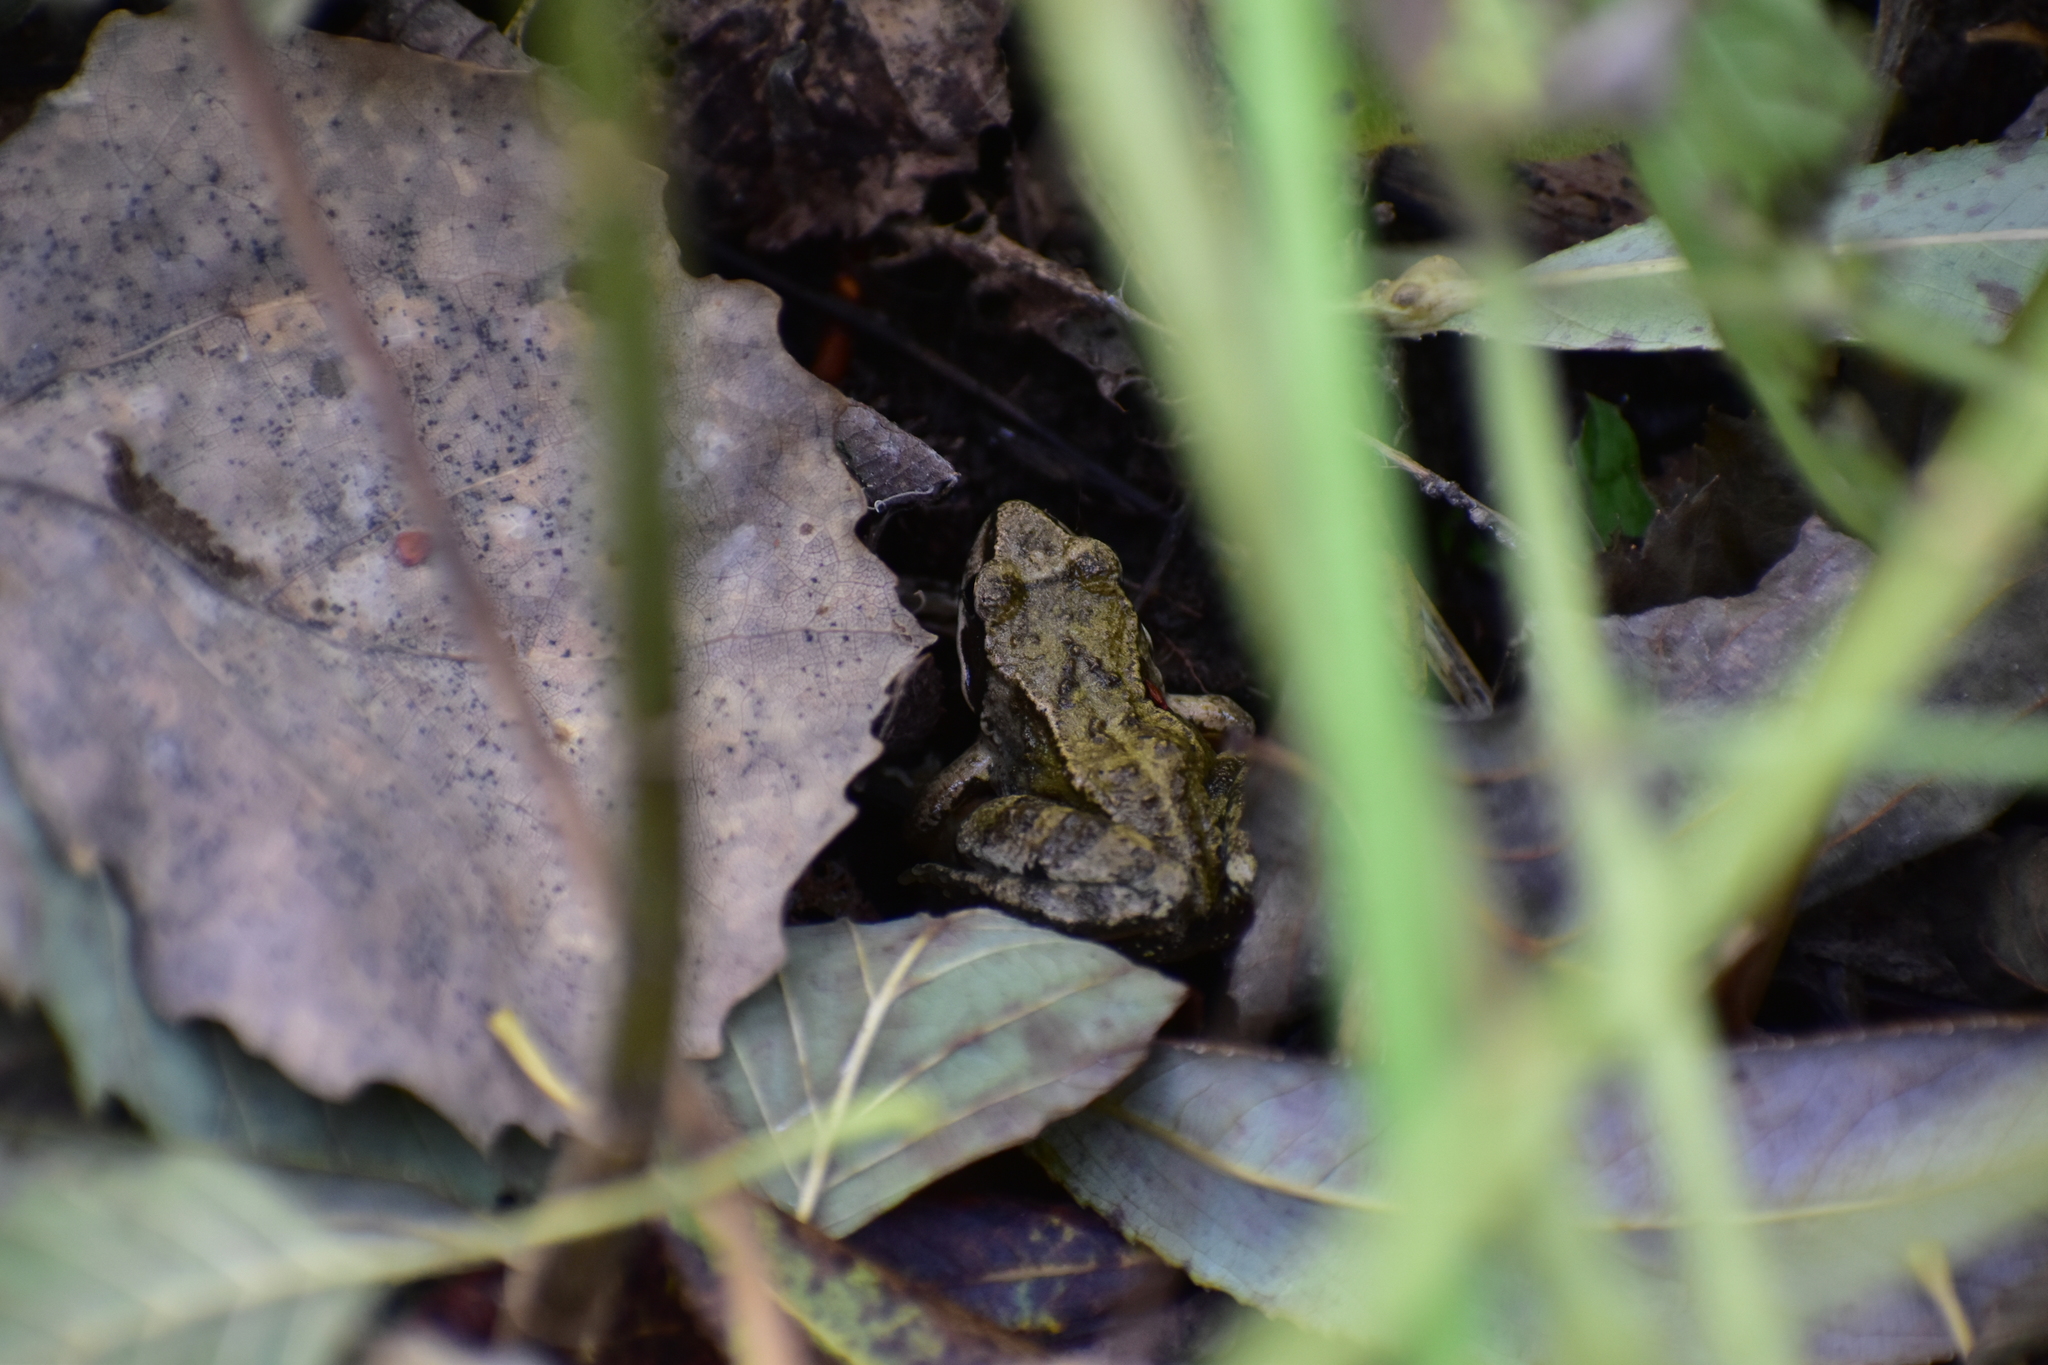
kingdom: Animalia
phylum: Chordata
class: Amphibia
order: Anura
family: Ranidae
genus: Rana
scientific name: Rana temporaria
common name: Common frog
